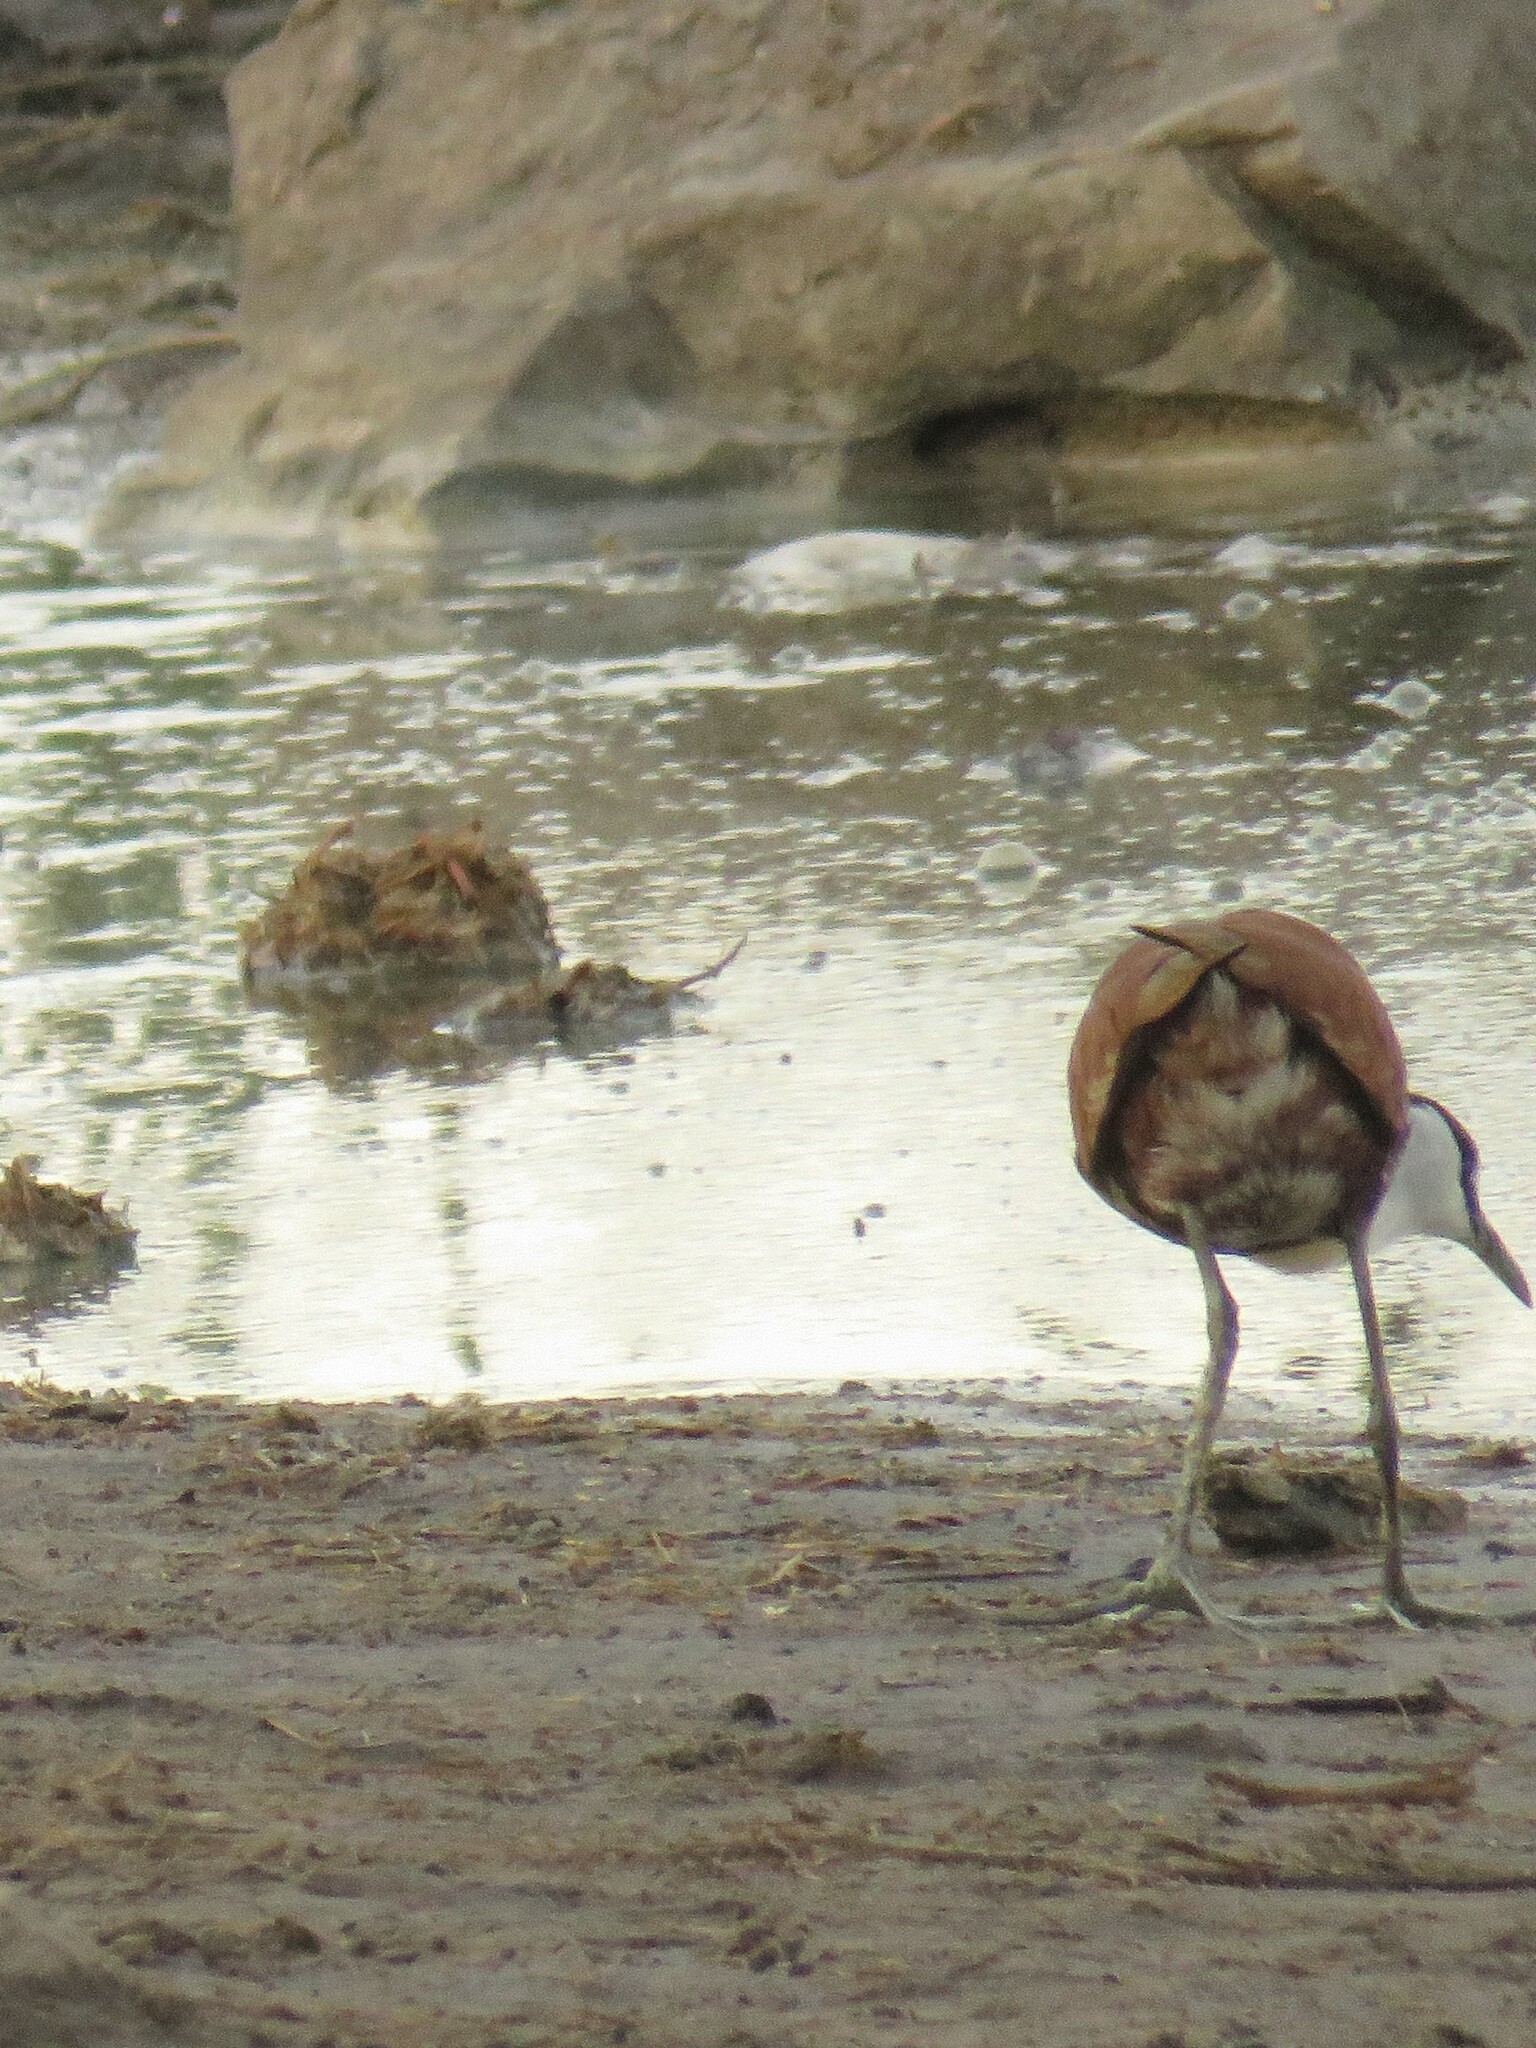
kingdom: Animalia
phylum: Chordata
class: Aves
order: Charadriiformes
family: Jacanidae
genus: Actophilornis
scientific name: Actophilornis africanus
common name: African jacana
